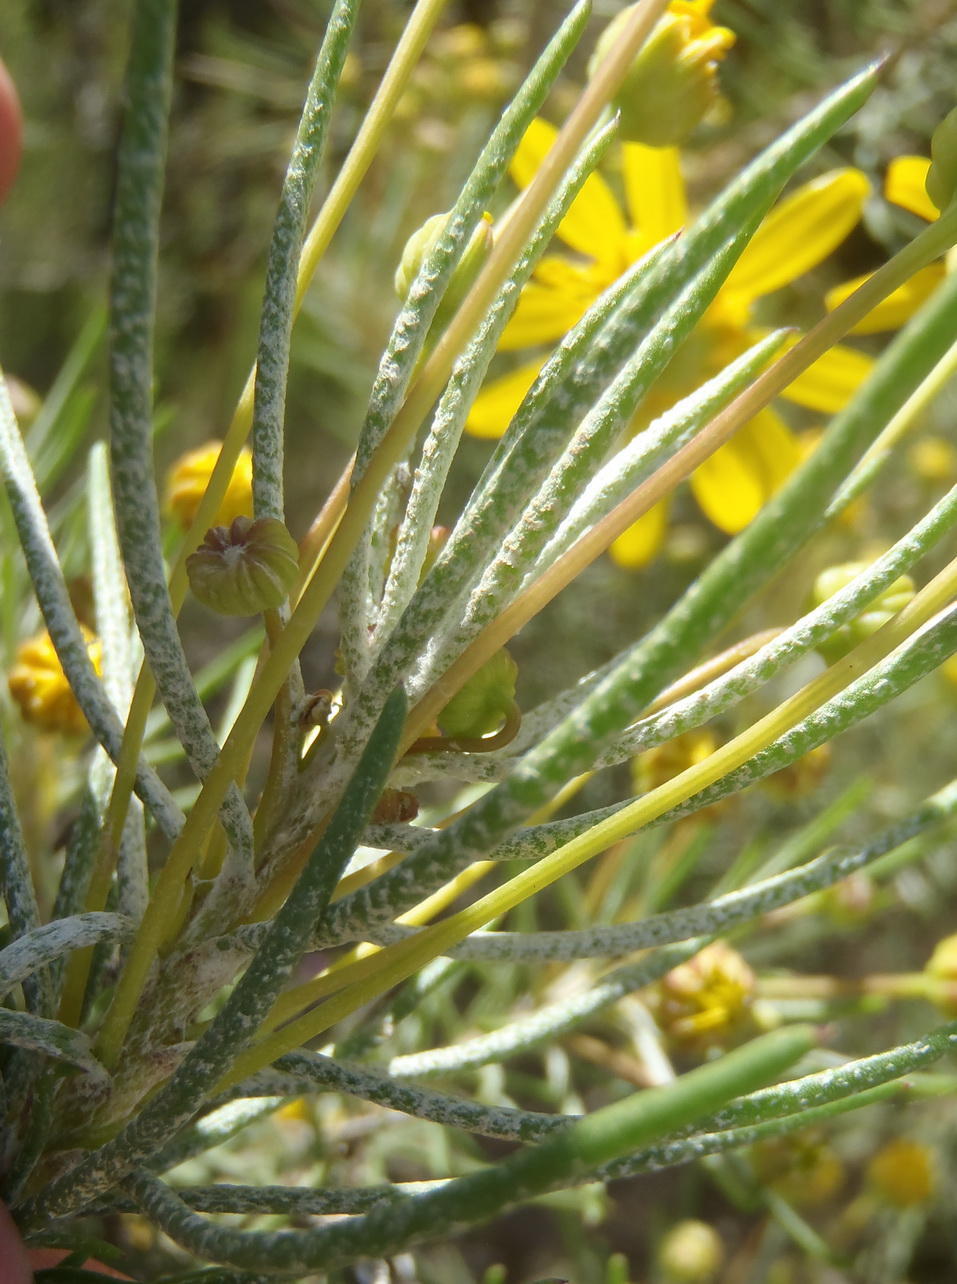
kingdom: Plantae
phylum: Tracheophyta
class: Magnoliopsida
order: Asterales
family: Asteraceae
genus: Euryops
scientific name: Euryops rehmannii
